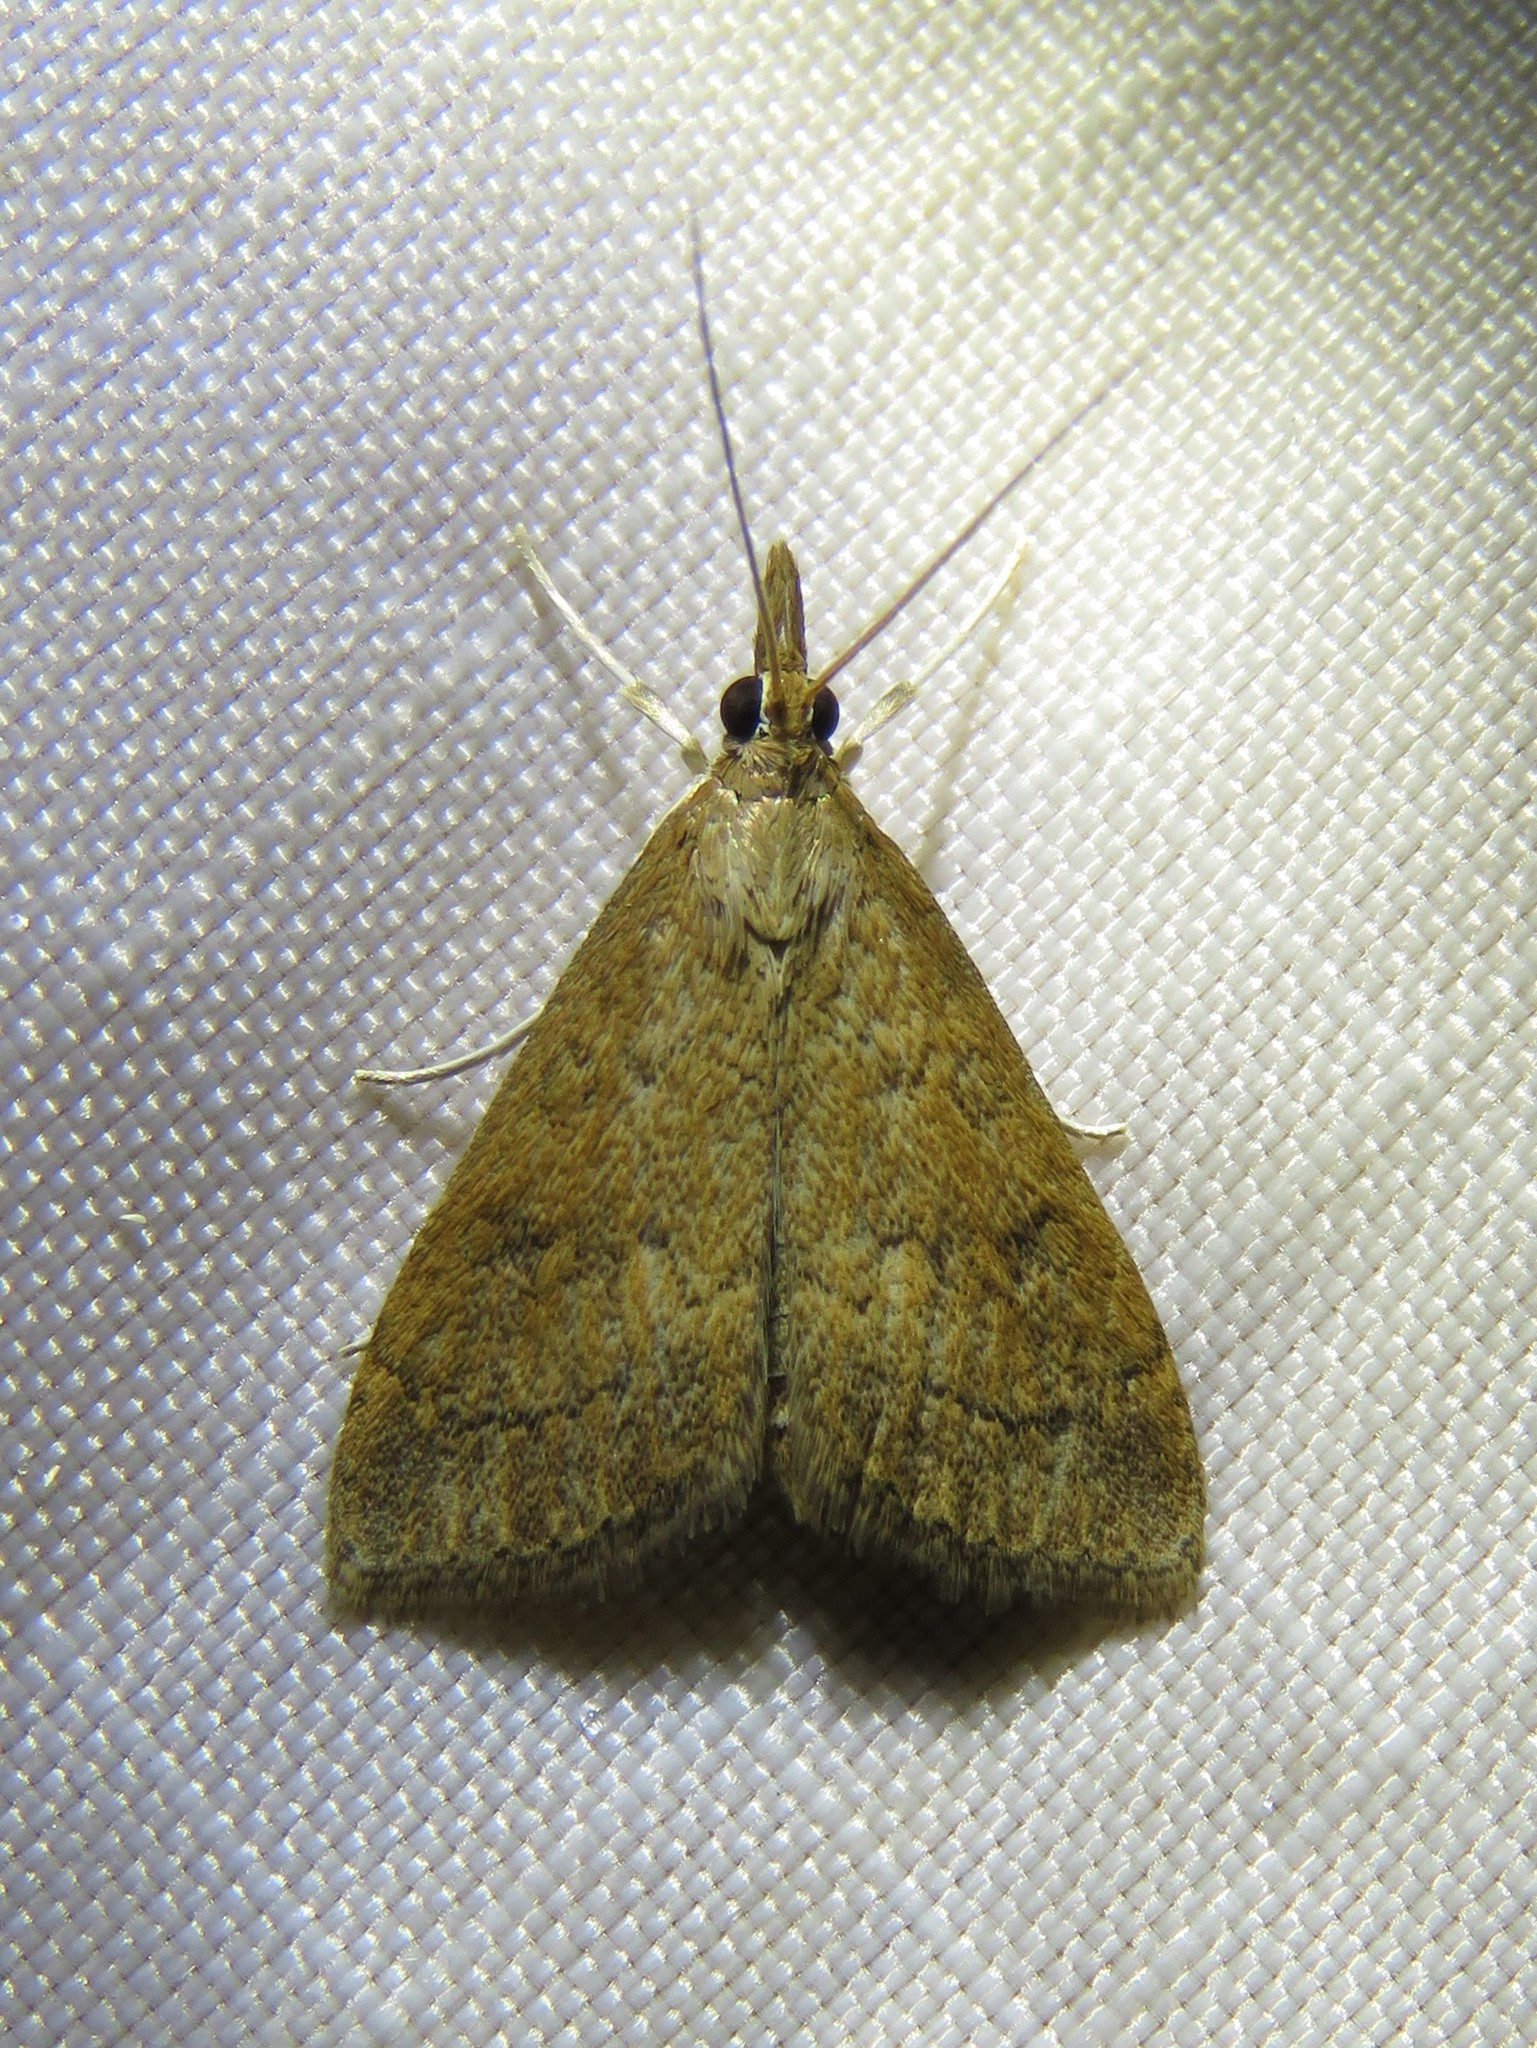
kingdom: Animalia
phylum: Arthropoda
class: Insecta
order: Lepidoptera
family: Crambidae
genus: Udea
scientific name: Udea rubigalis
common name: Celery leaftier moth
